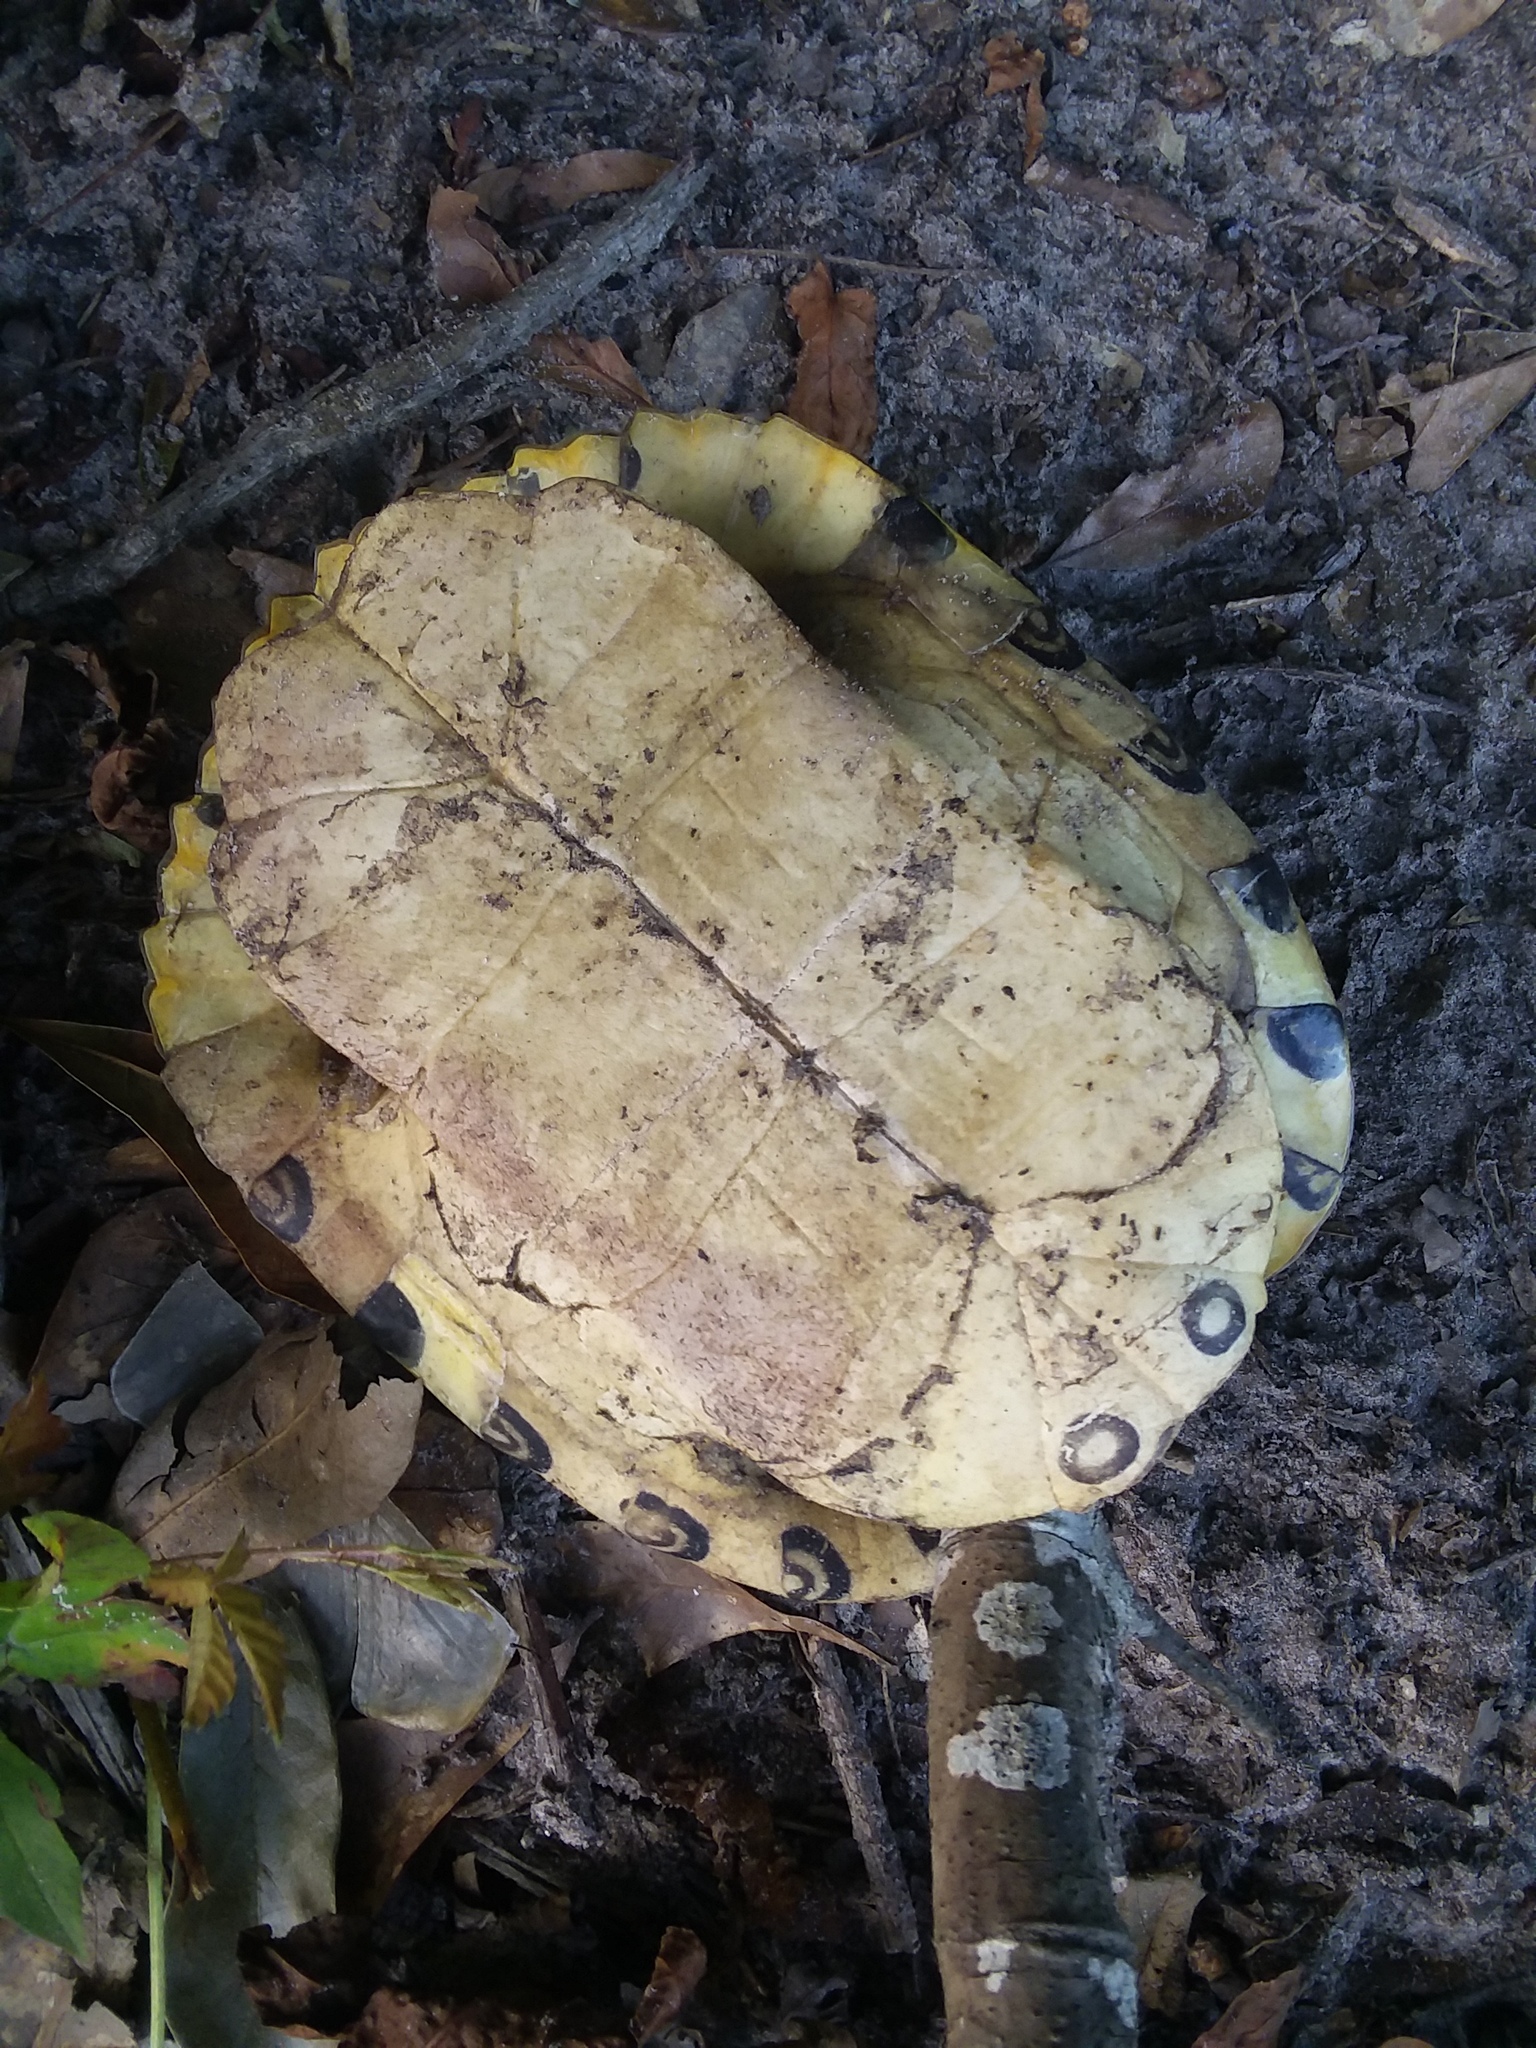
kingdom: Animalia
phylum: Chordata
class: Testudines
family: Emydidae
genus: Trachemys
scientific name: Trachemys scripta
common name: Slider
